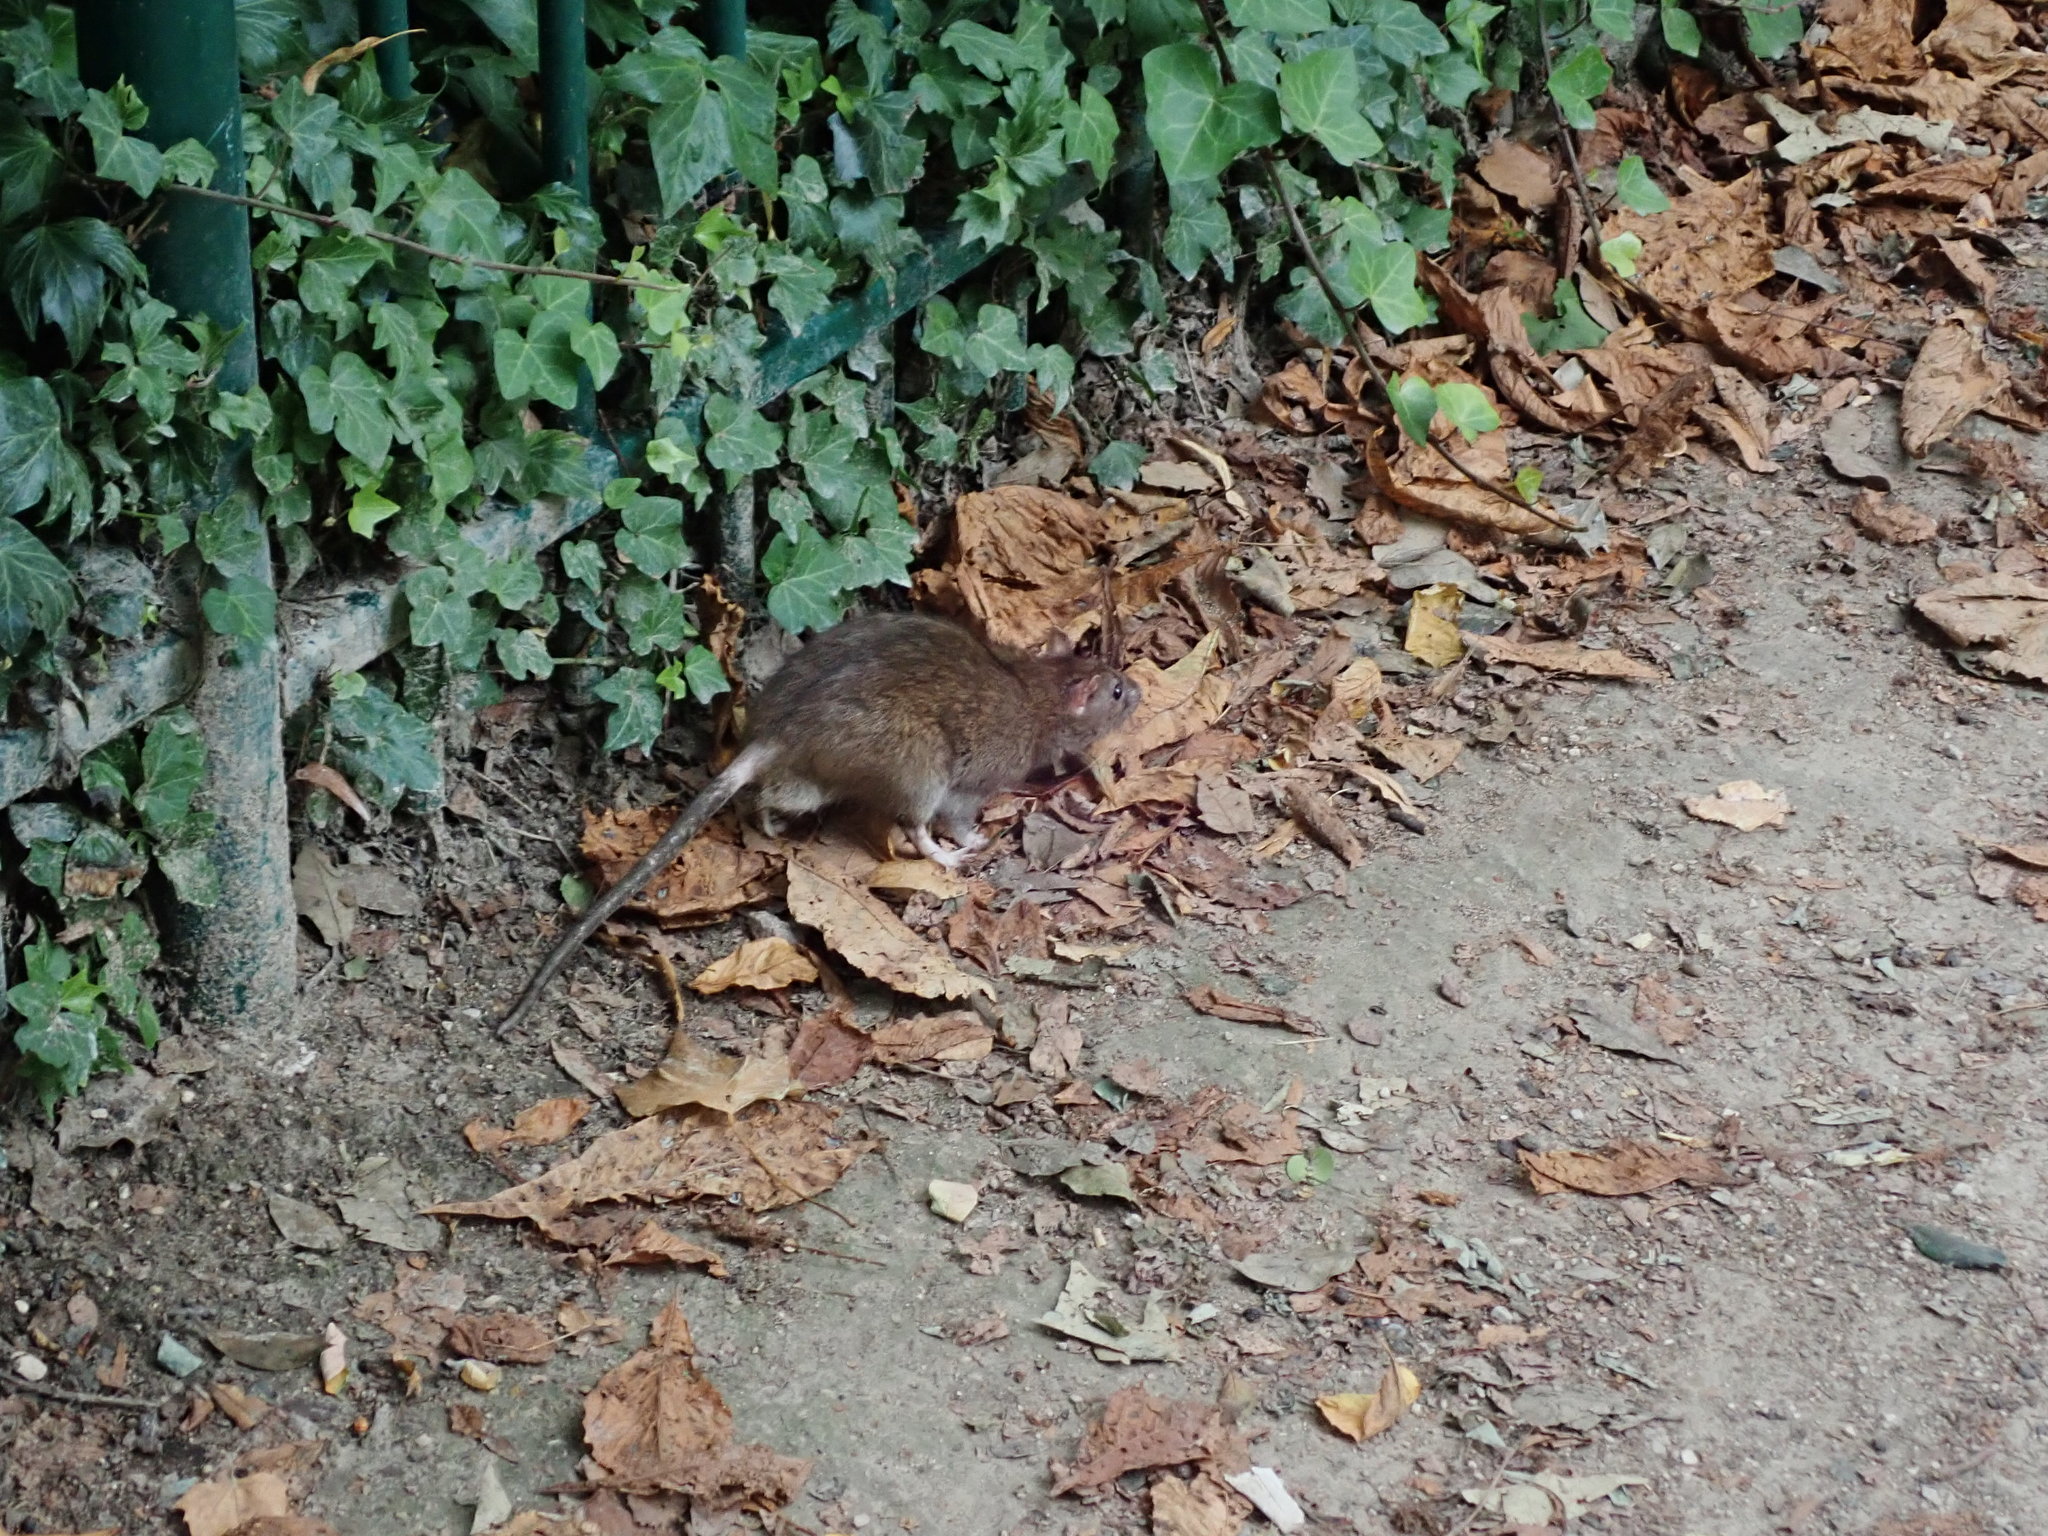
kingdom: Animalia
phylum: Chordata
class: Mammalia
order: Rodentia
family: Muridae
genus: Rattus
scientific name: Rattus norvegicus
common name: Brown rat
